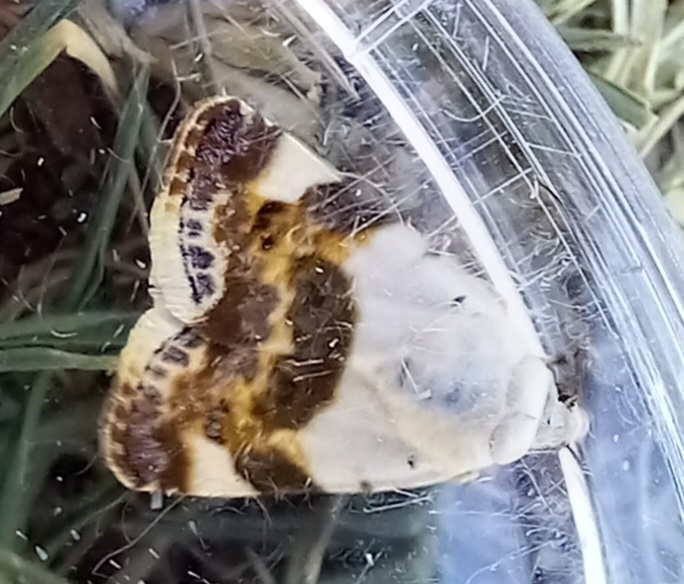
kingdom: Animalia
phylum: Arthropoda
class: Insecta
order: Lepidoptera
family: Noctuidae
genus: Acontia
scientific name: Acontia lucida
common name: Pale shoulder
